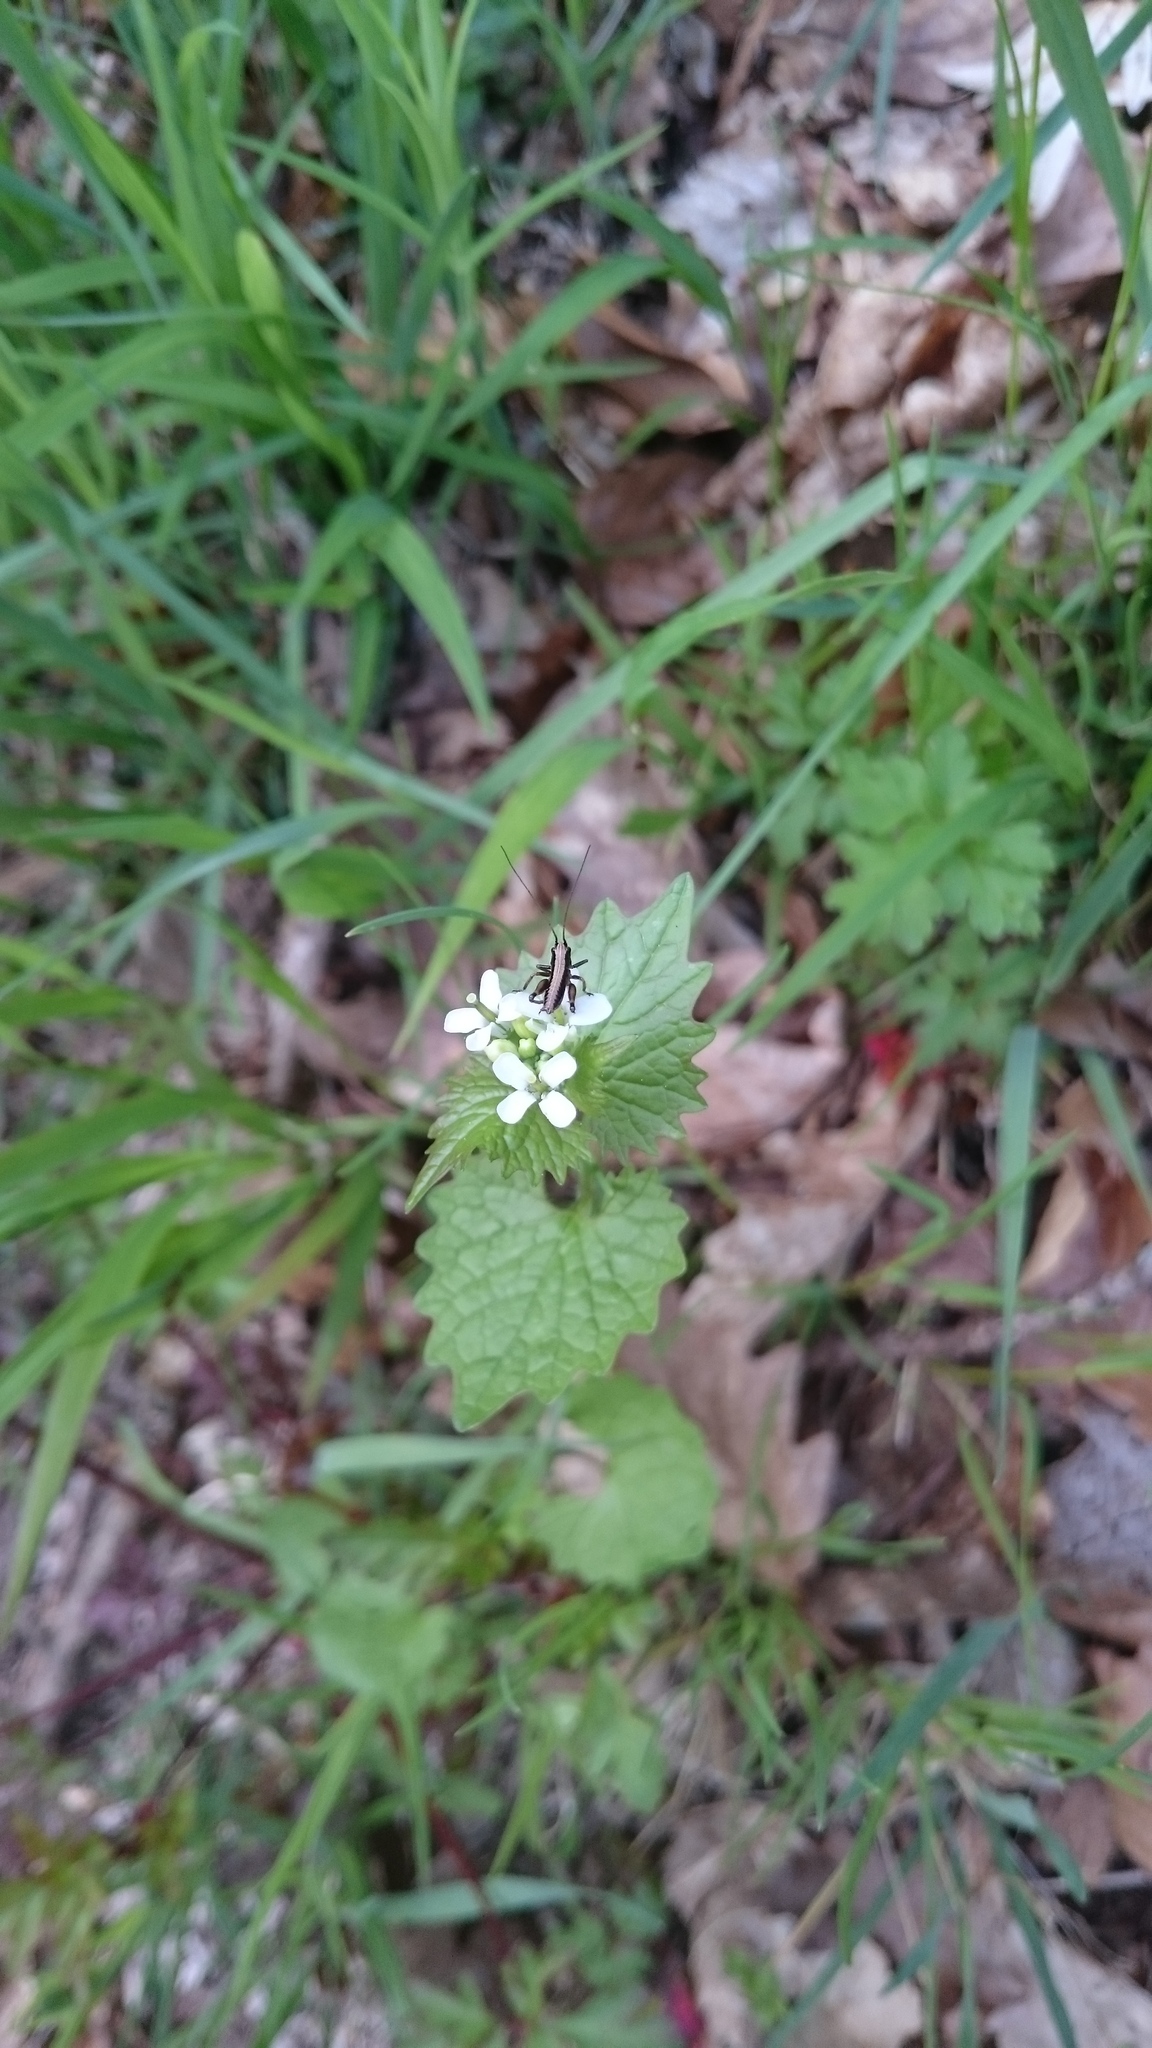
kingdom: Animalia
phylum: Arthropoda
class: Insecta
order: Orthoptera
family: Tettigoniidae
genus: Pholidoptera
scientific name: Pholidoptera griseoaptera
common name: Dark bush-cricket
